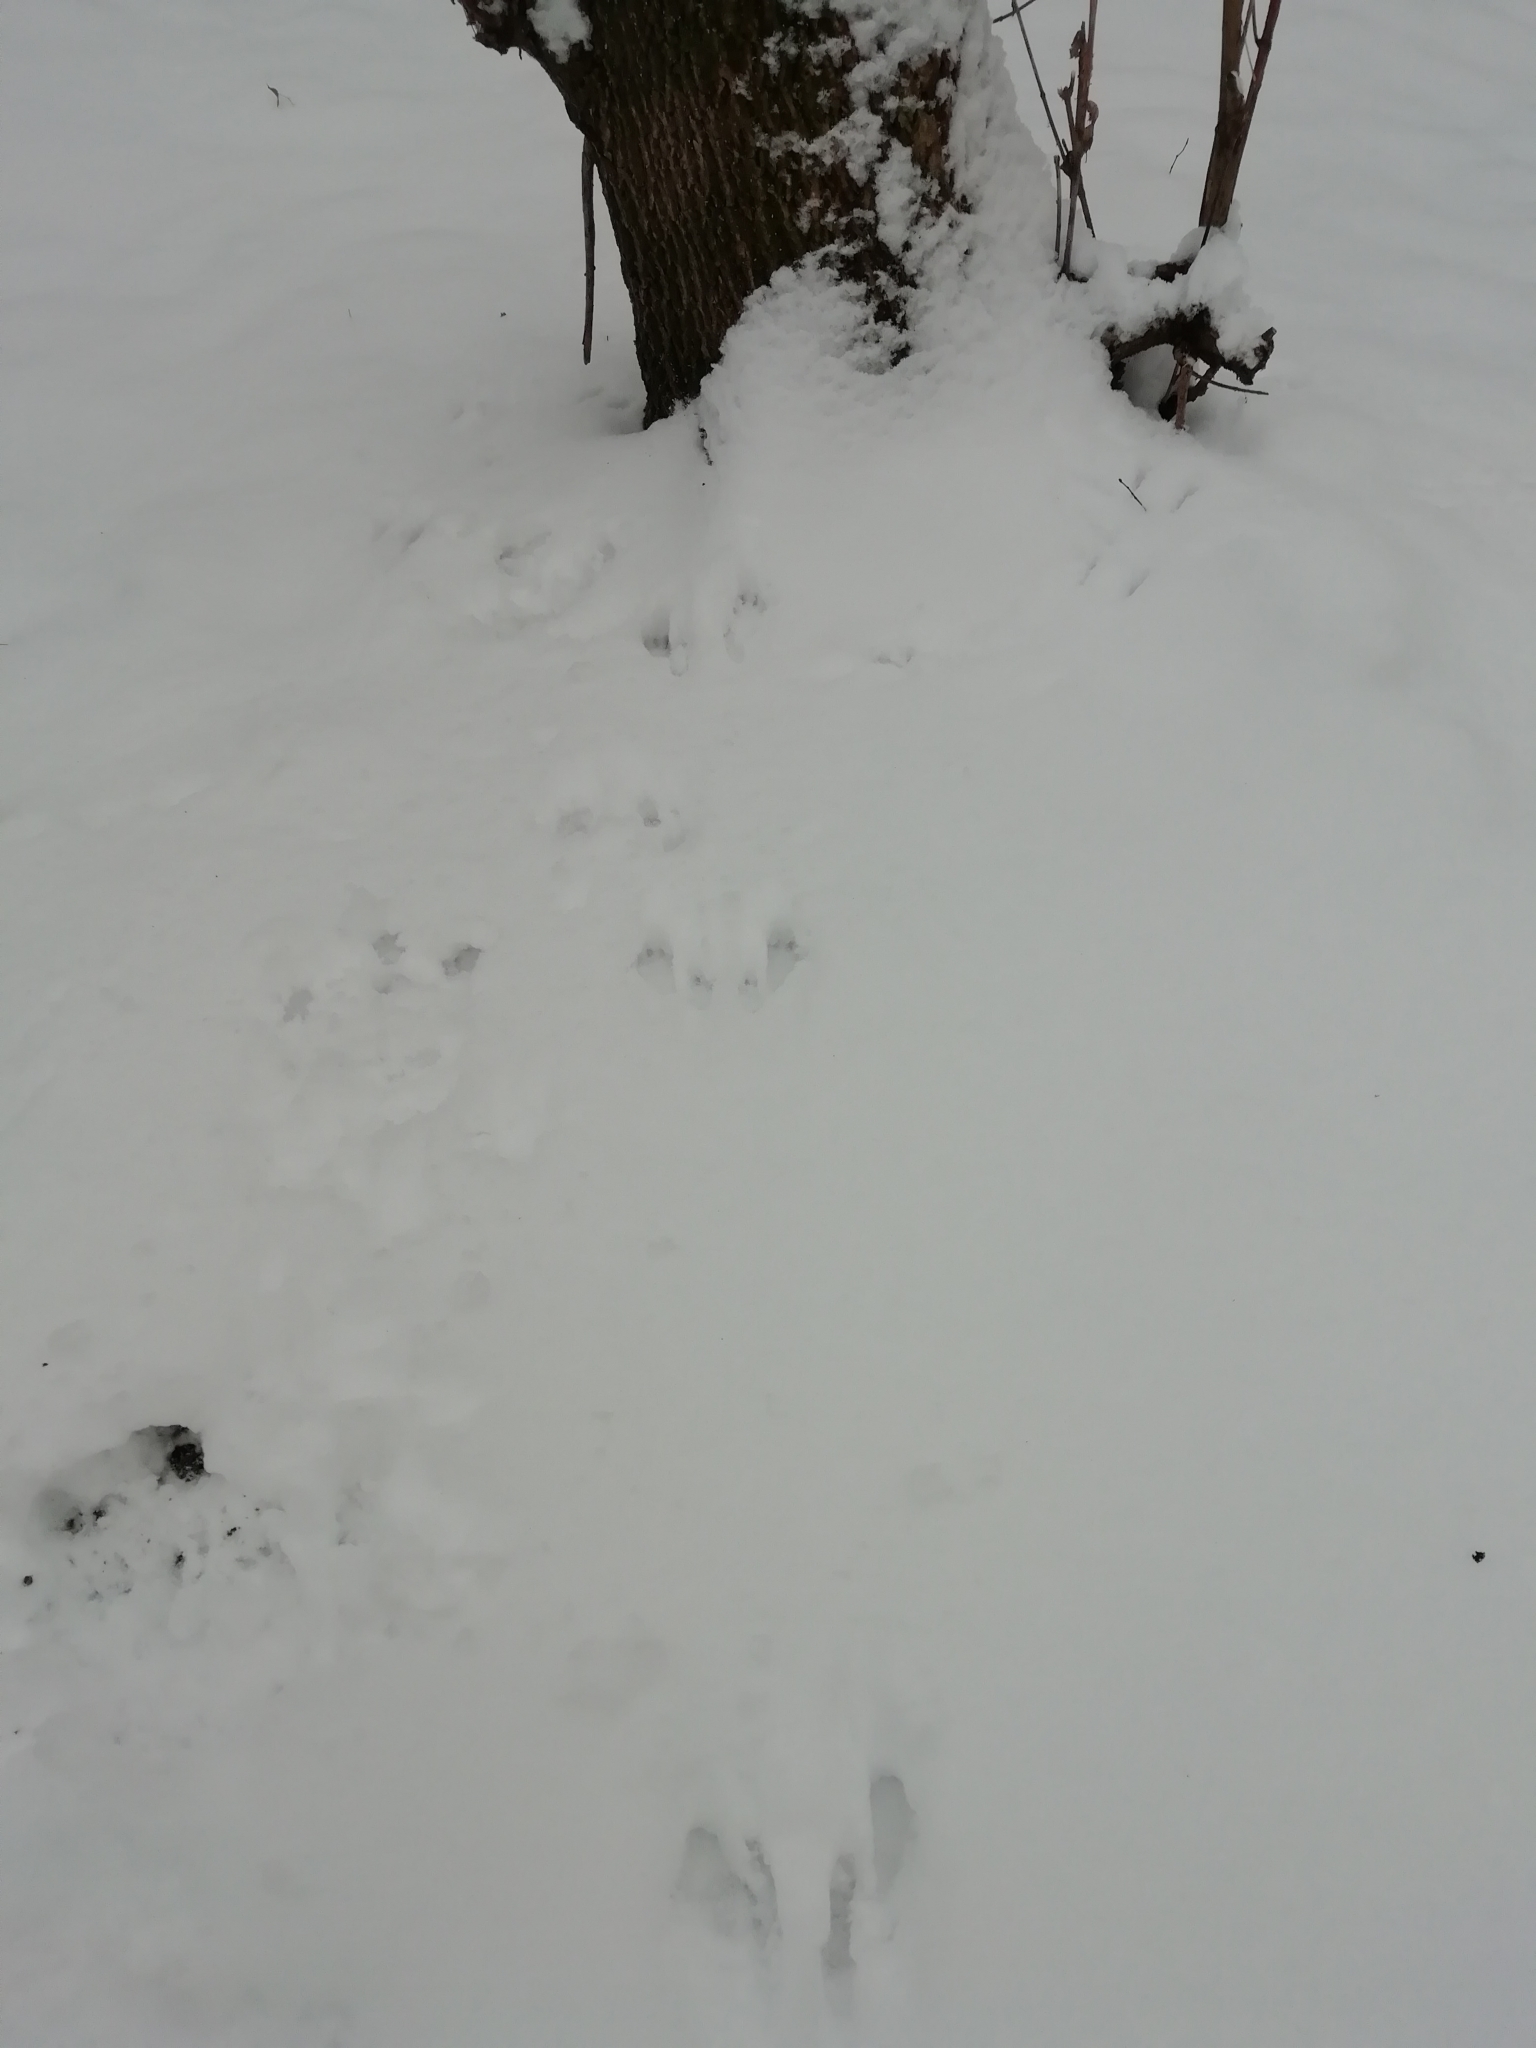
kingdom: Animalia
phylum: Chordata
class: Mammalia
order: Rodentia
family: Sciuridae
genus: Sciurus
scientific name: Sciurus vulgaris
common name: Eurasian red squirrel
